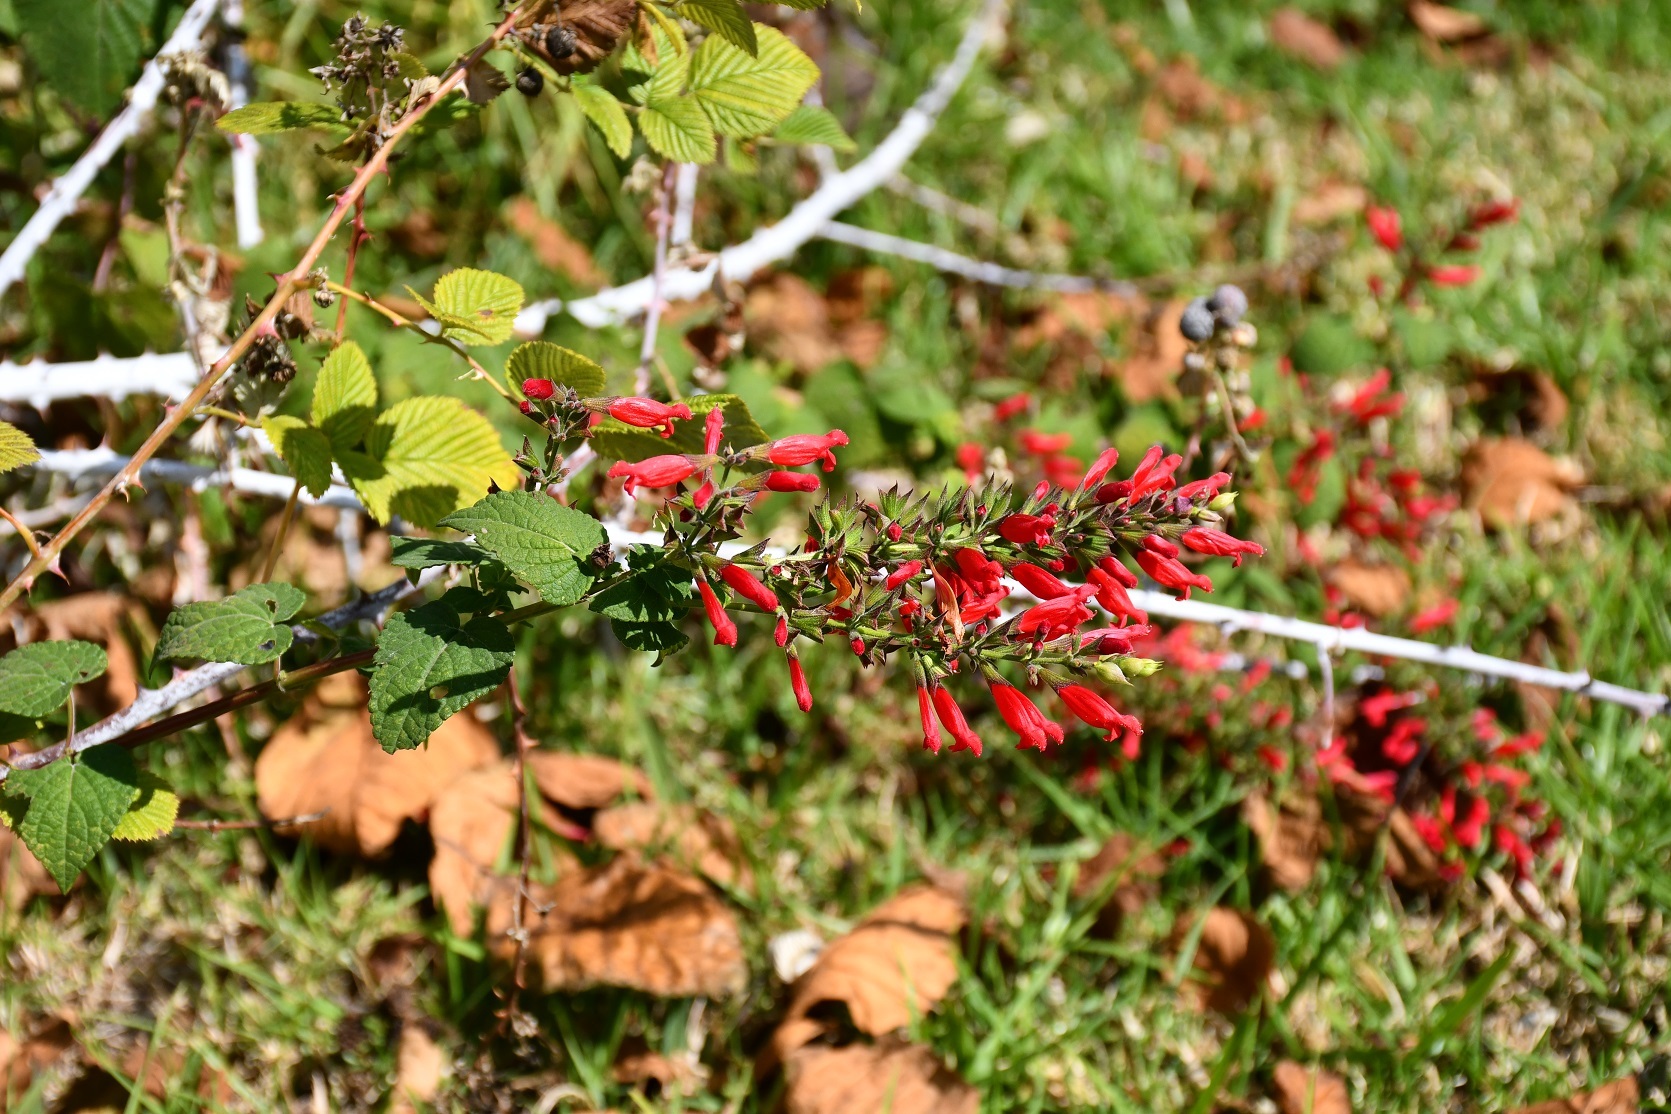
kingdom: Plantae
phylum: Tracheophyta
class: Magnoliopsida
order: Lamiales
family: Lamiaceae
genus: Salvia
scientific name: Salvia holwayi
